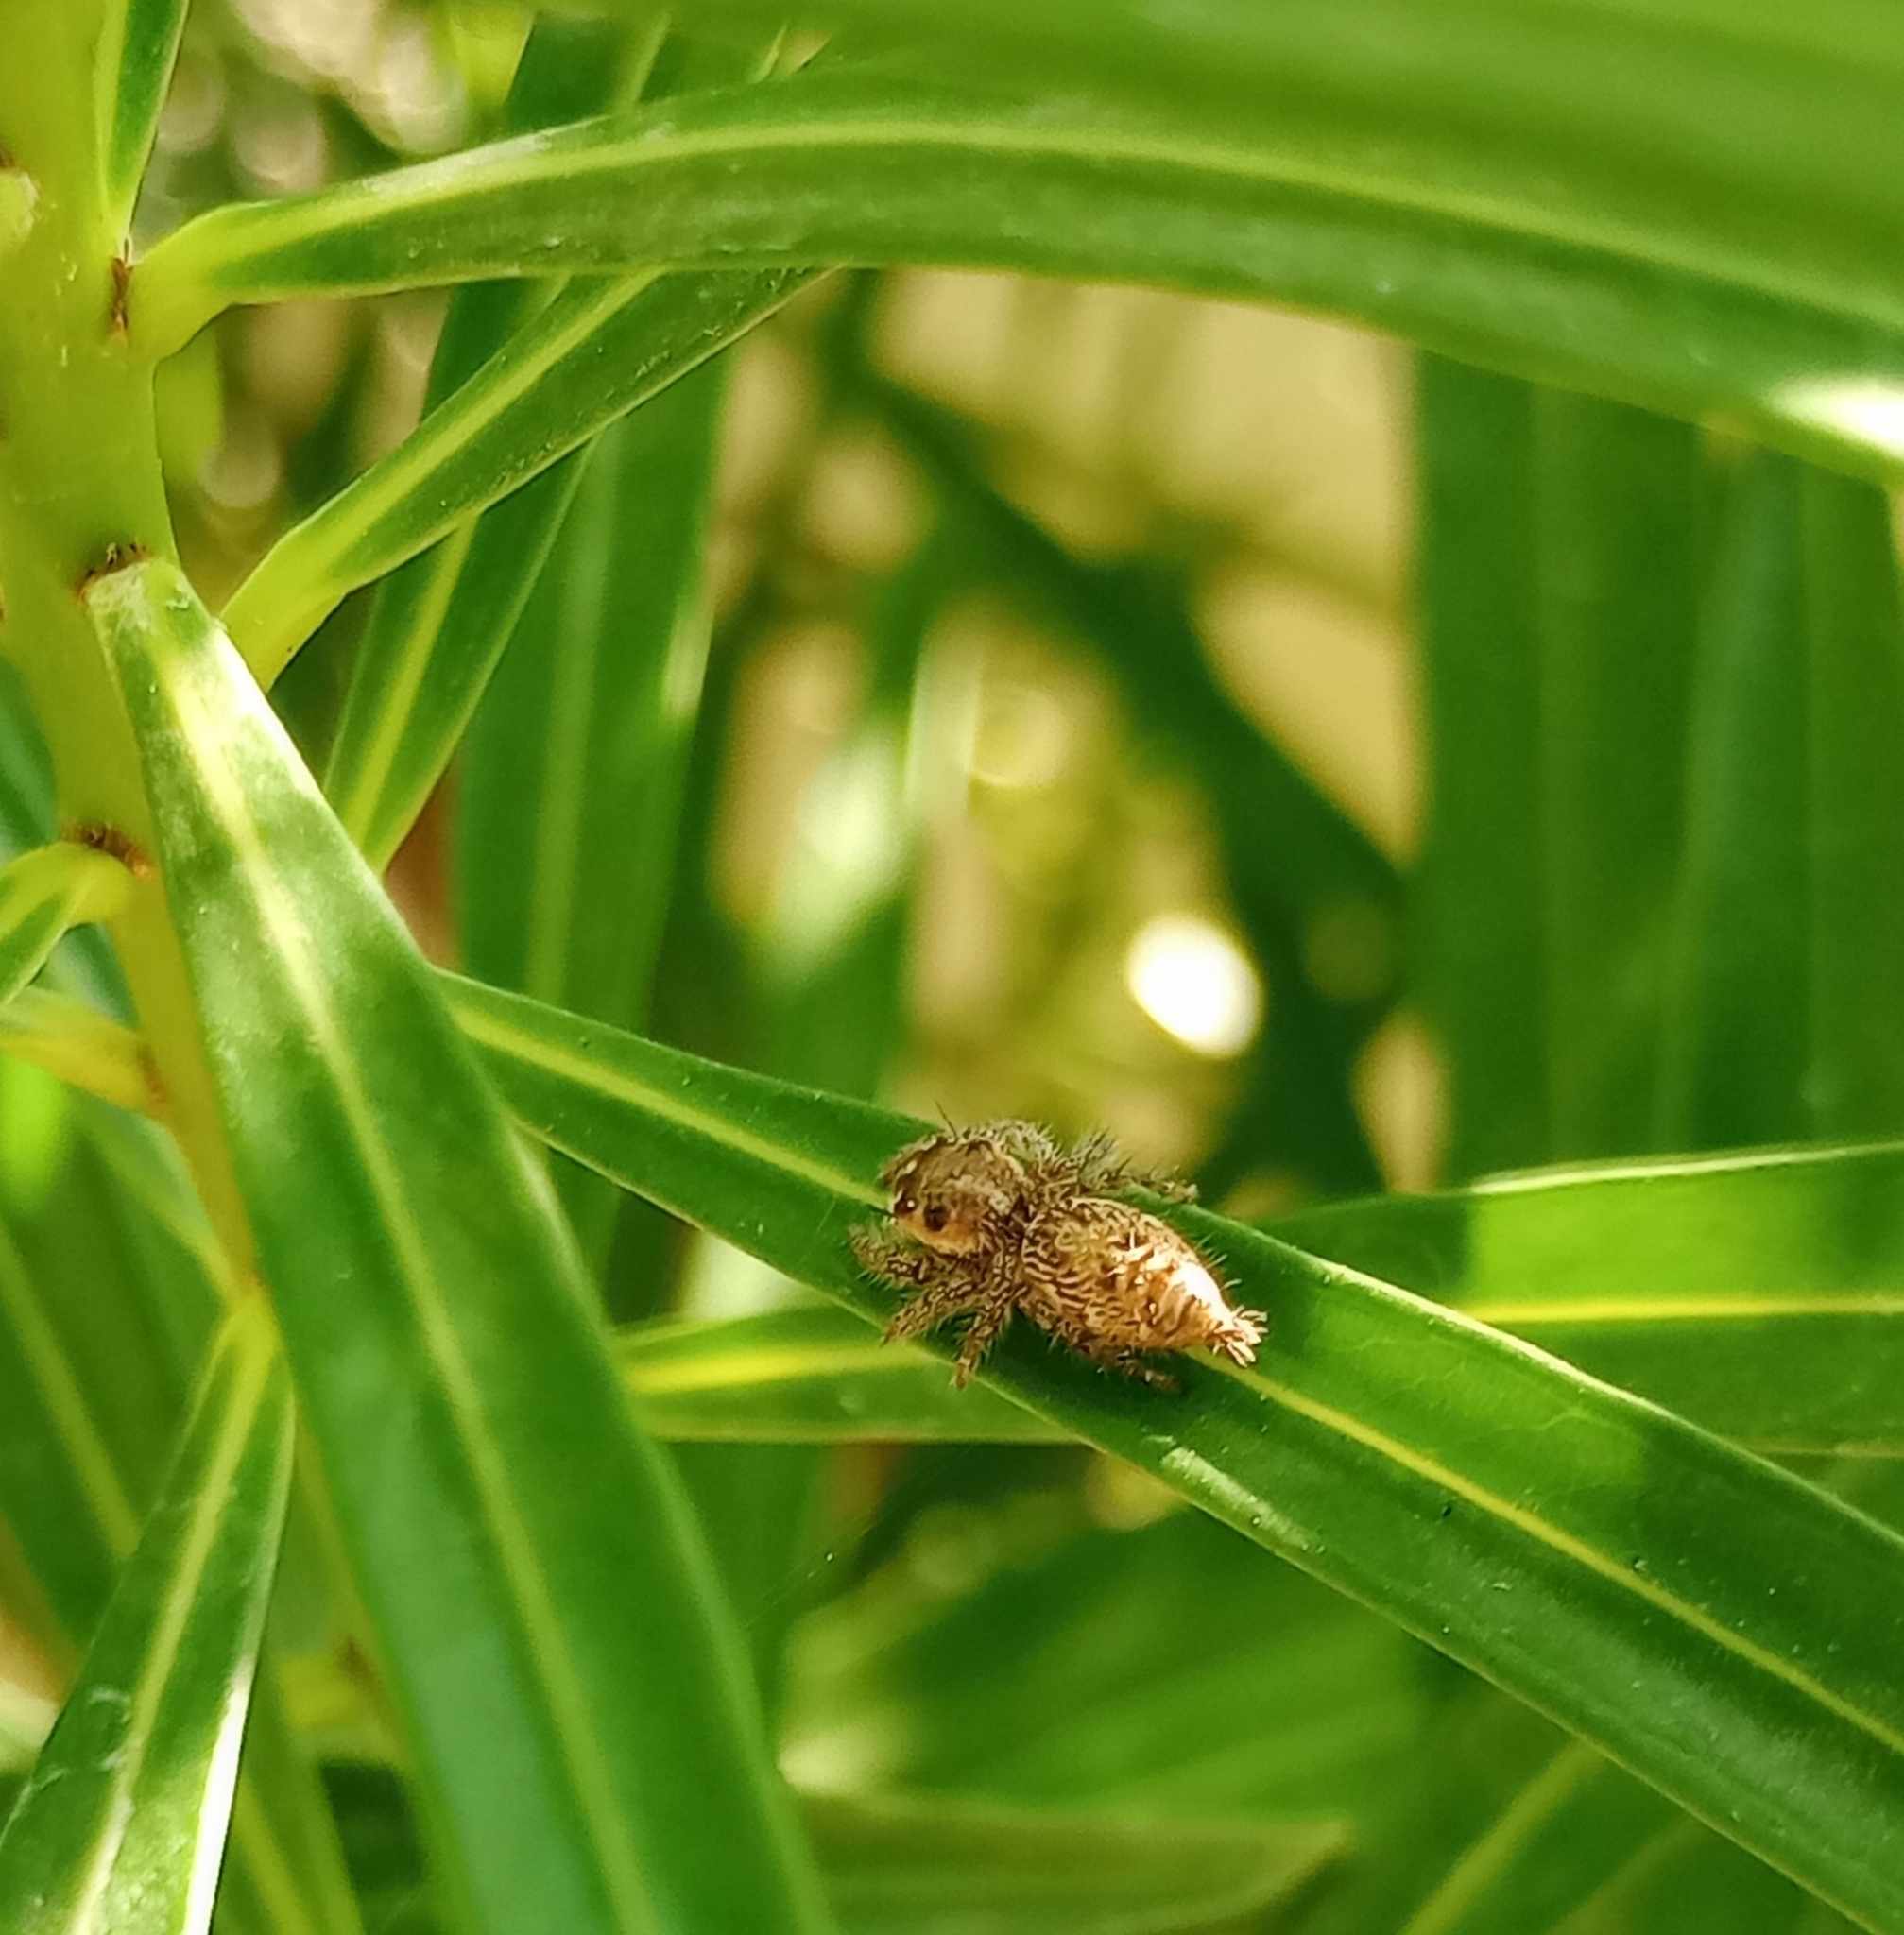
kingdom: Animalia
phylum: Arthropoda
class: Arachnida
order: Araneae
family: Salticidae
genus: Hyllus
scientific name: Hyllus semicupreus
